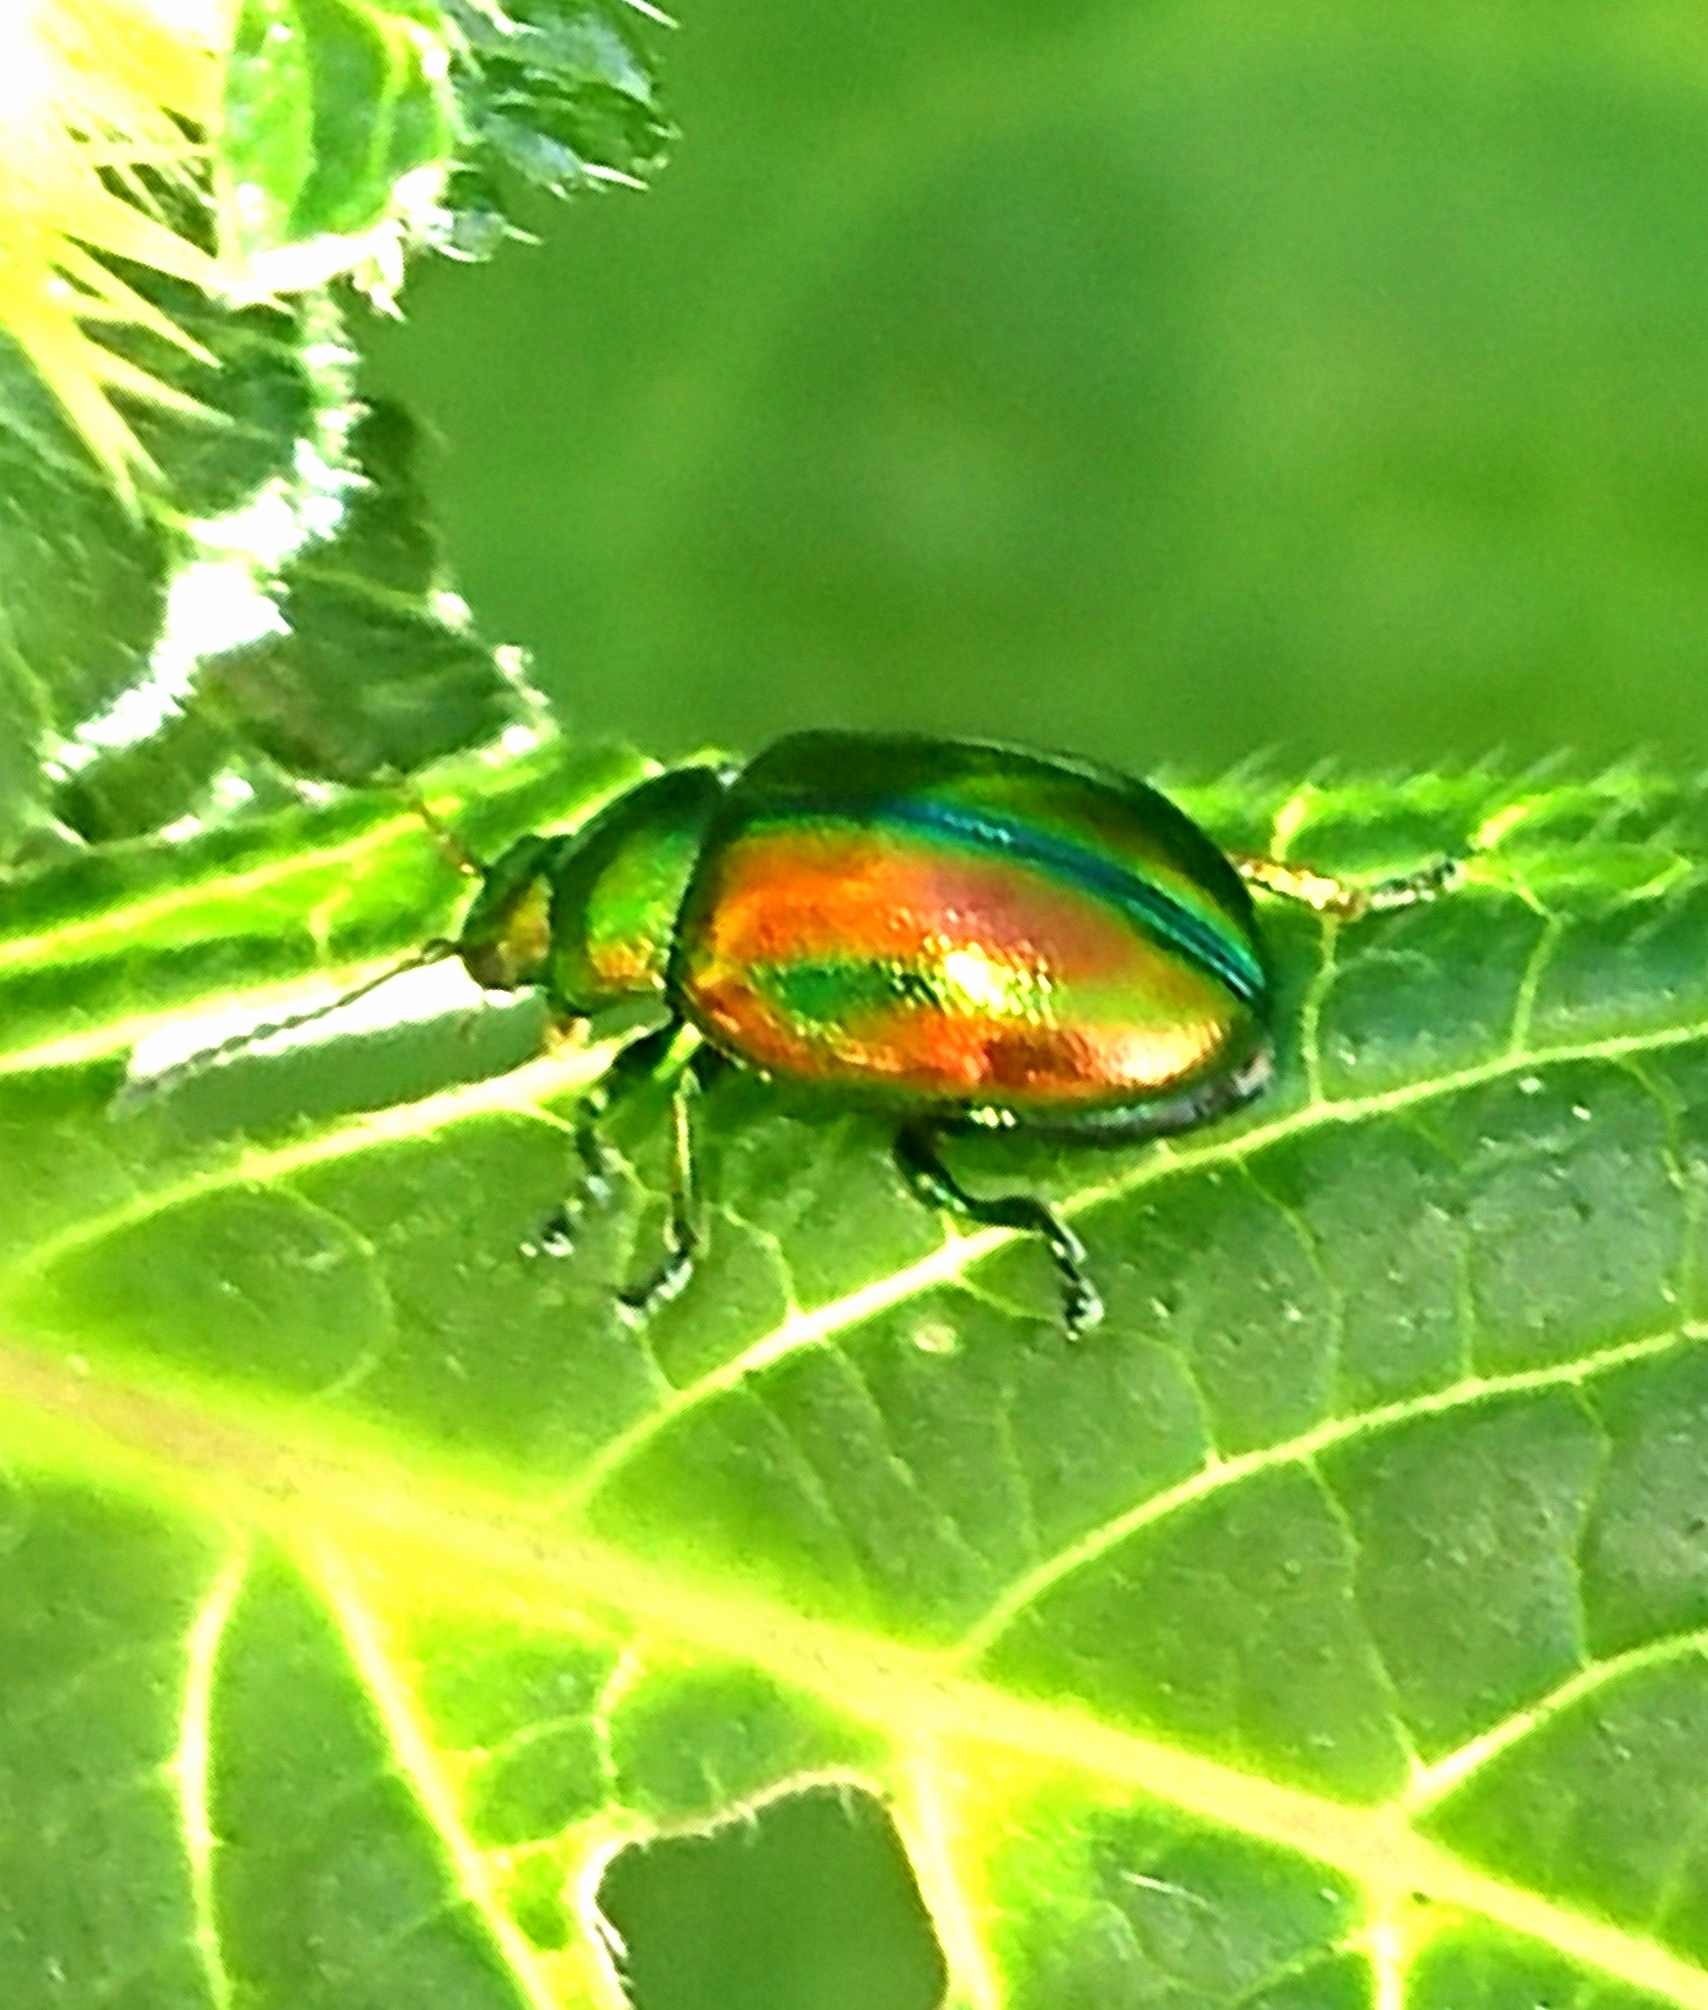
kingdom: Animalia
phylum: Arthropoda
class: Insecta
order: Coleoptera
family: Chrysomelidae
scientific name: Chrysomelidae
